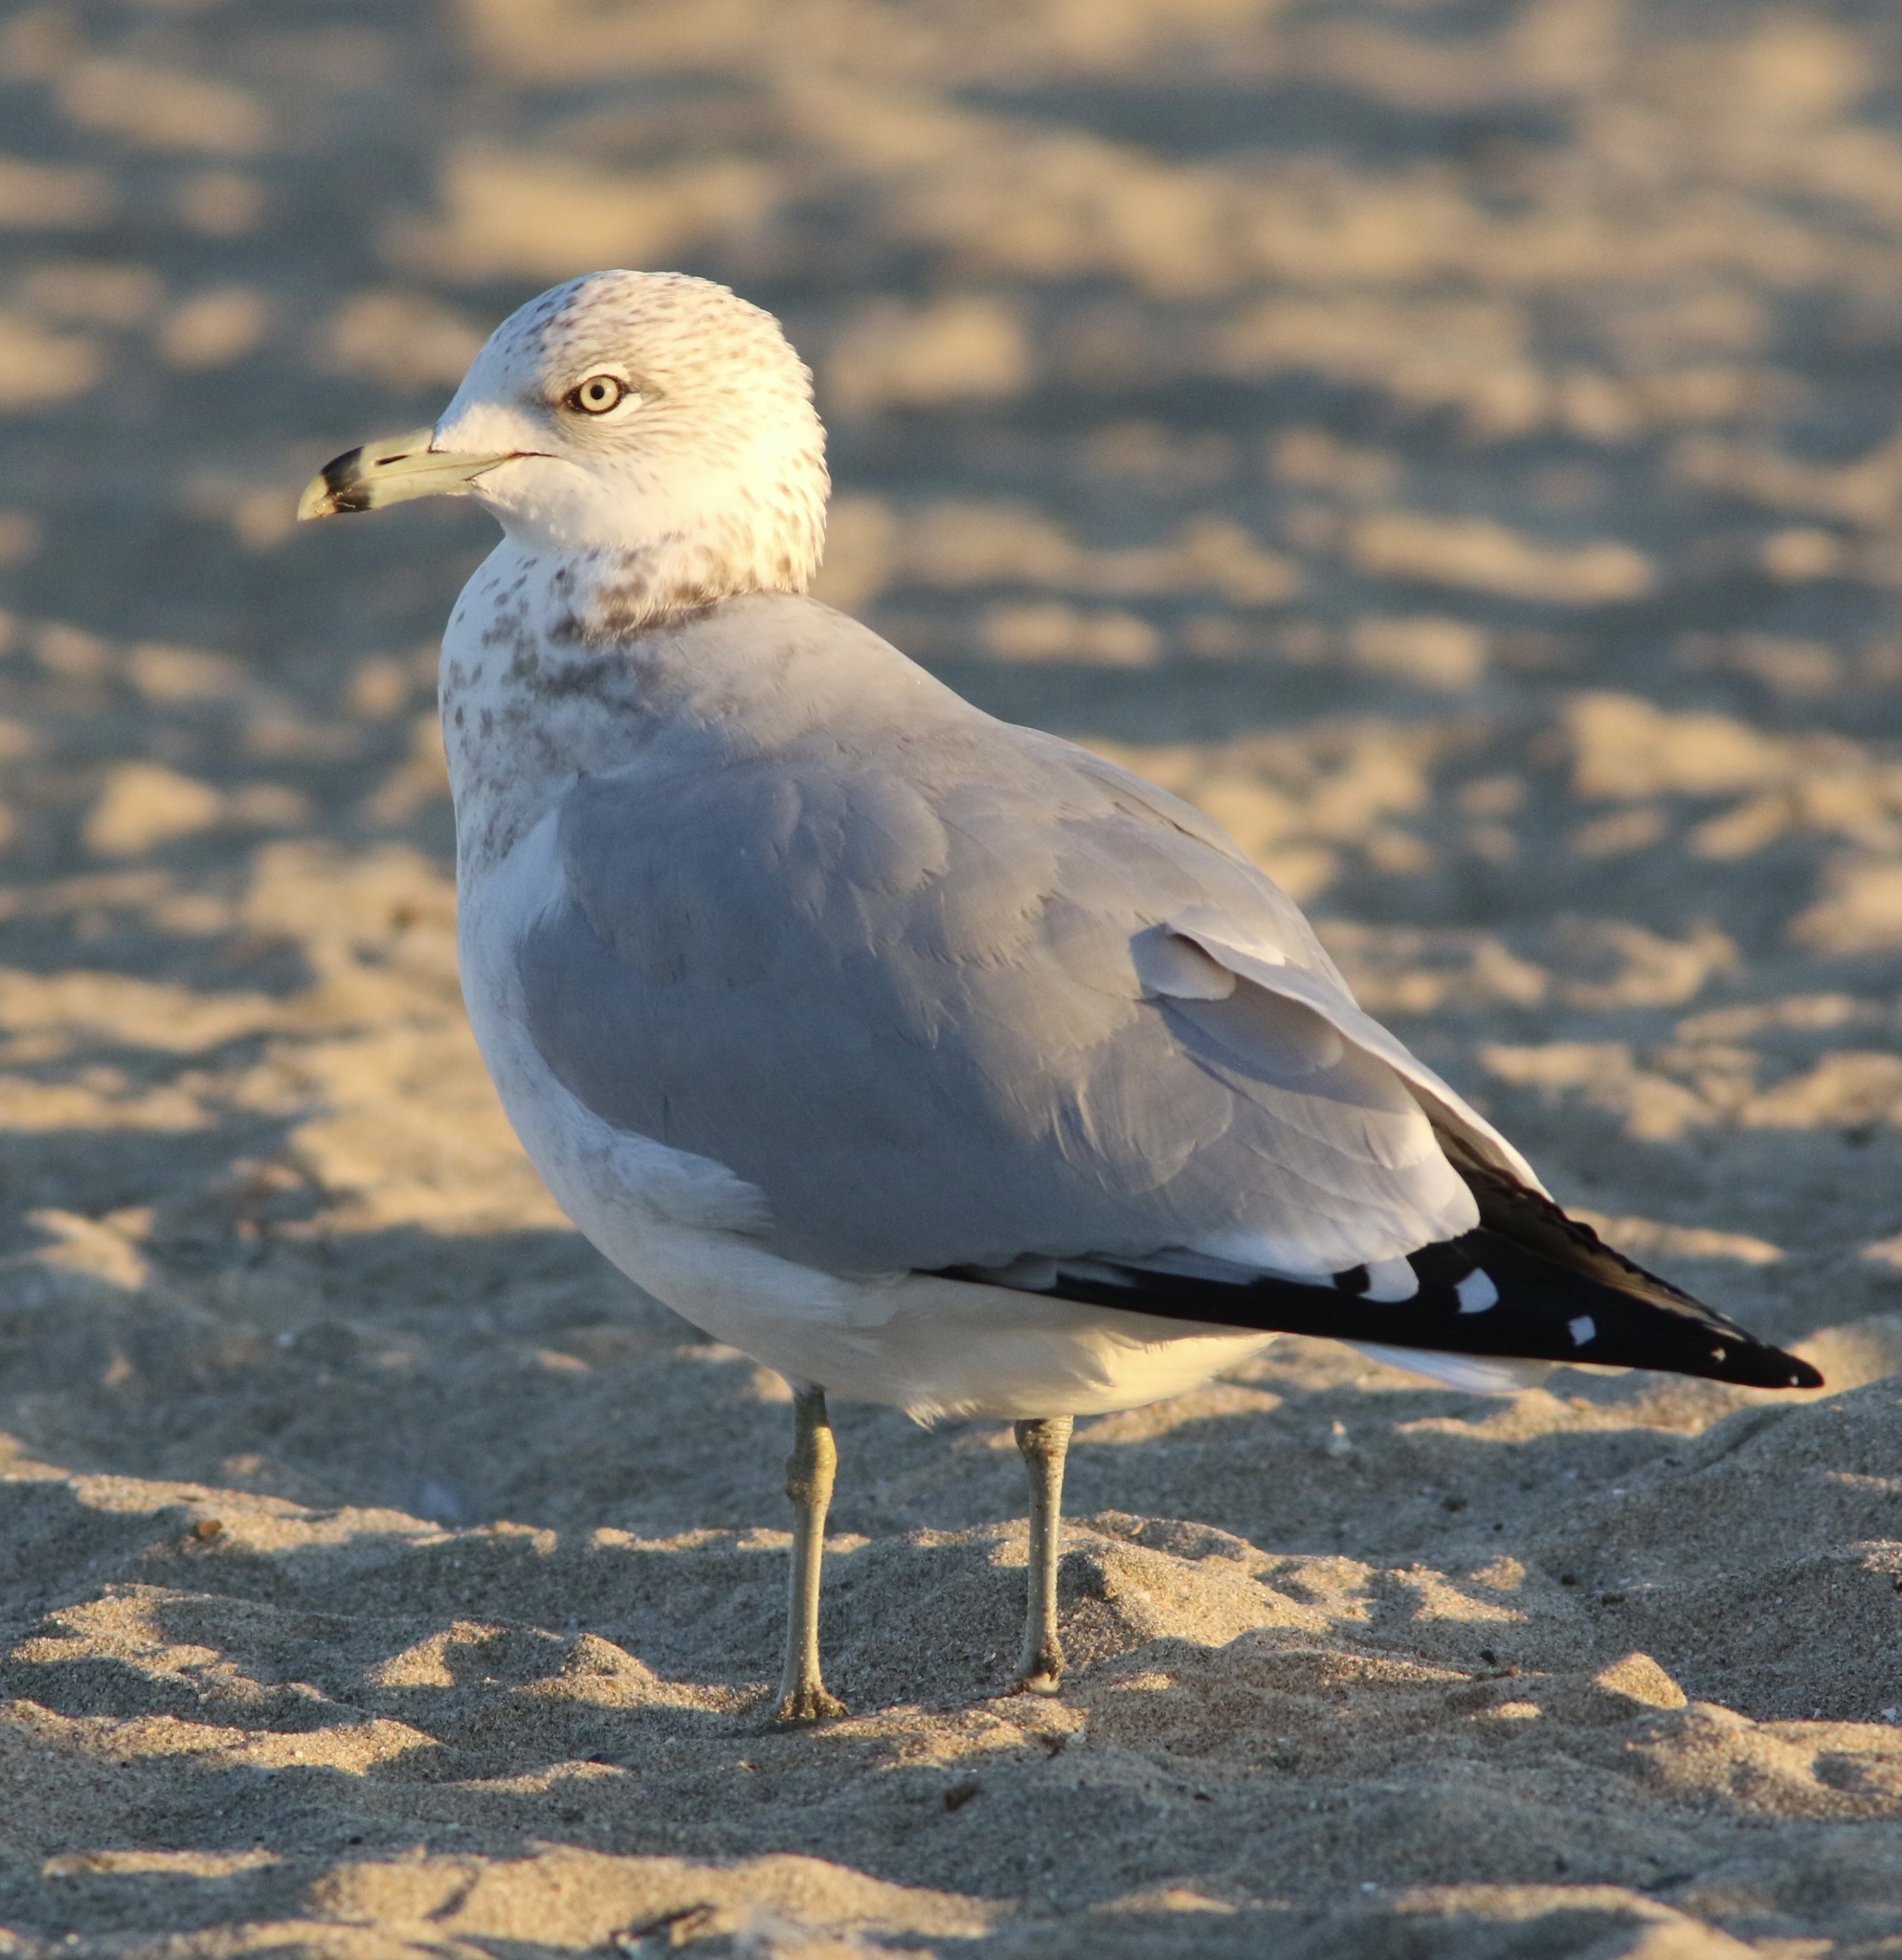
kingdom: Animalia
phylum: Chordata
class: Aves
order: Charadriiformes
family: Laridae
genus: Larus
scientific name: Larus delawarensis
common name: Ring-billed gull
